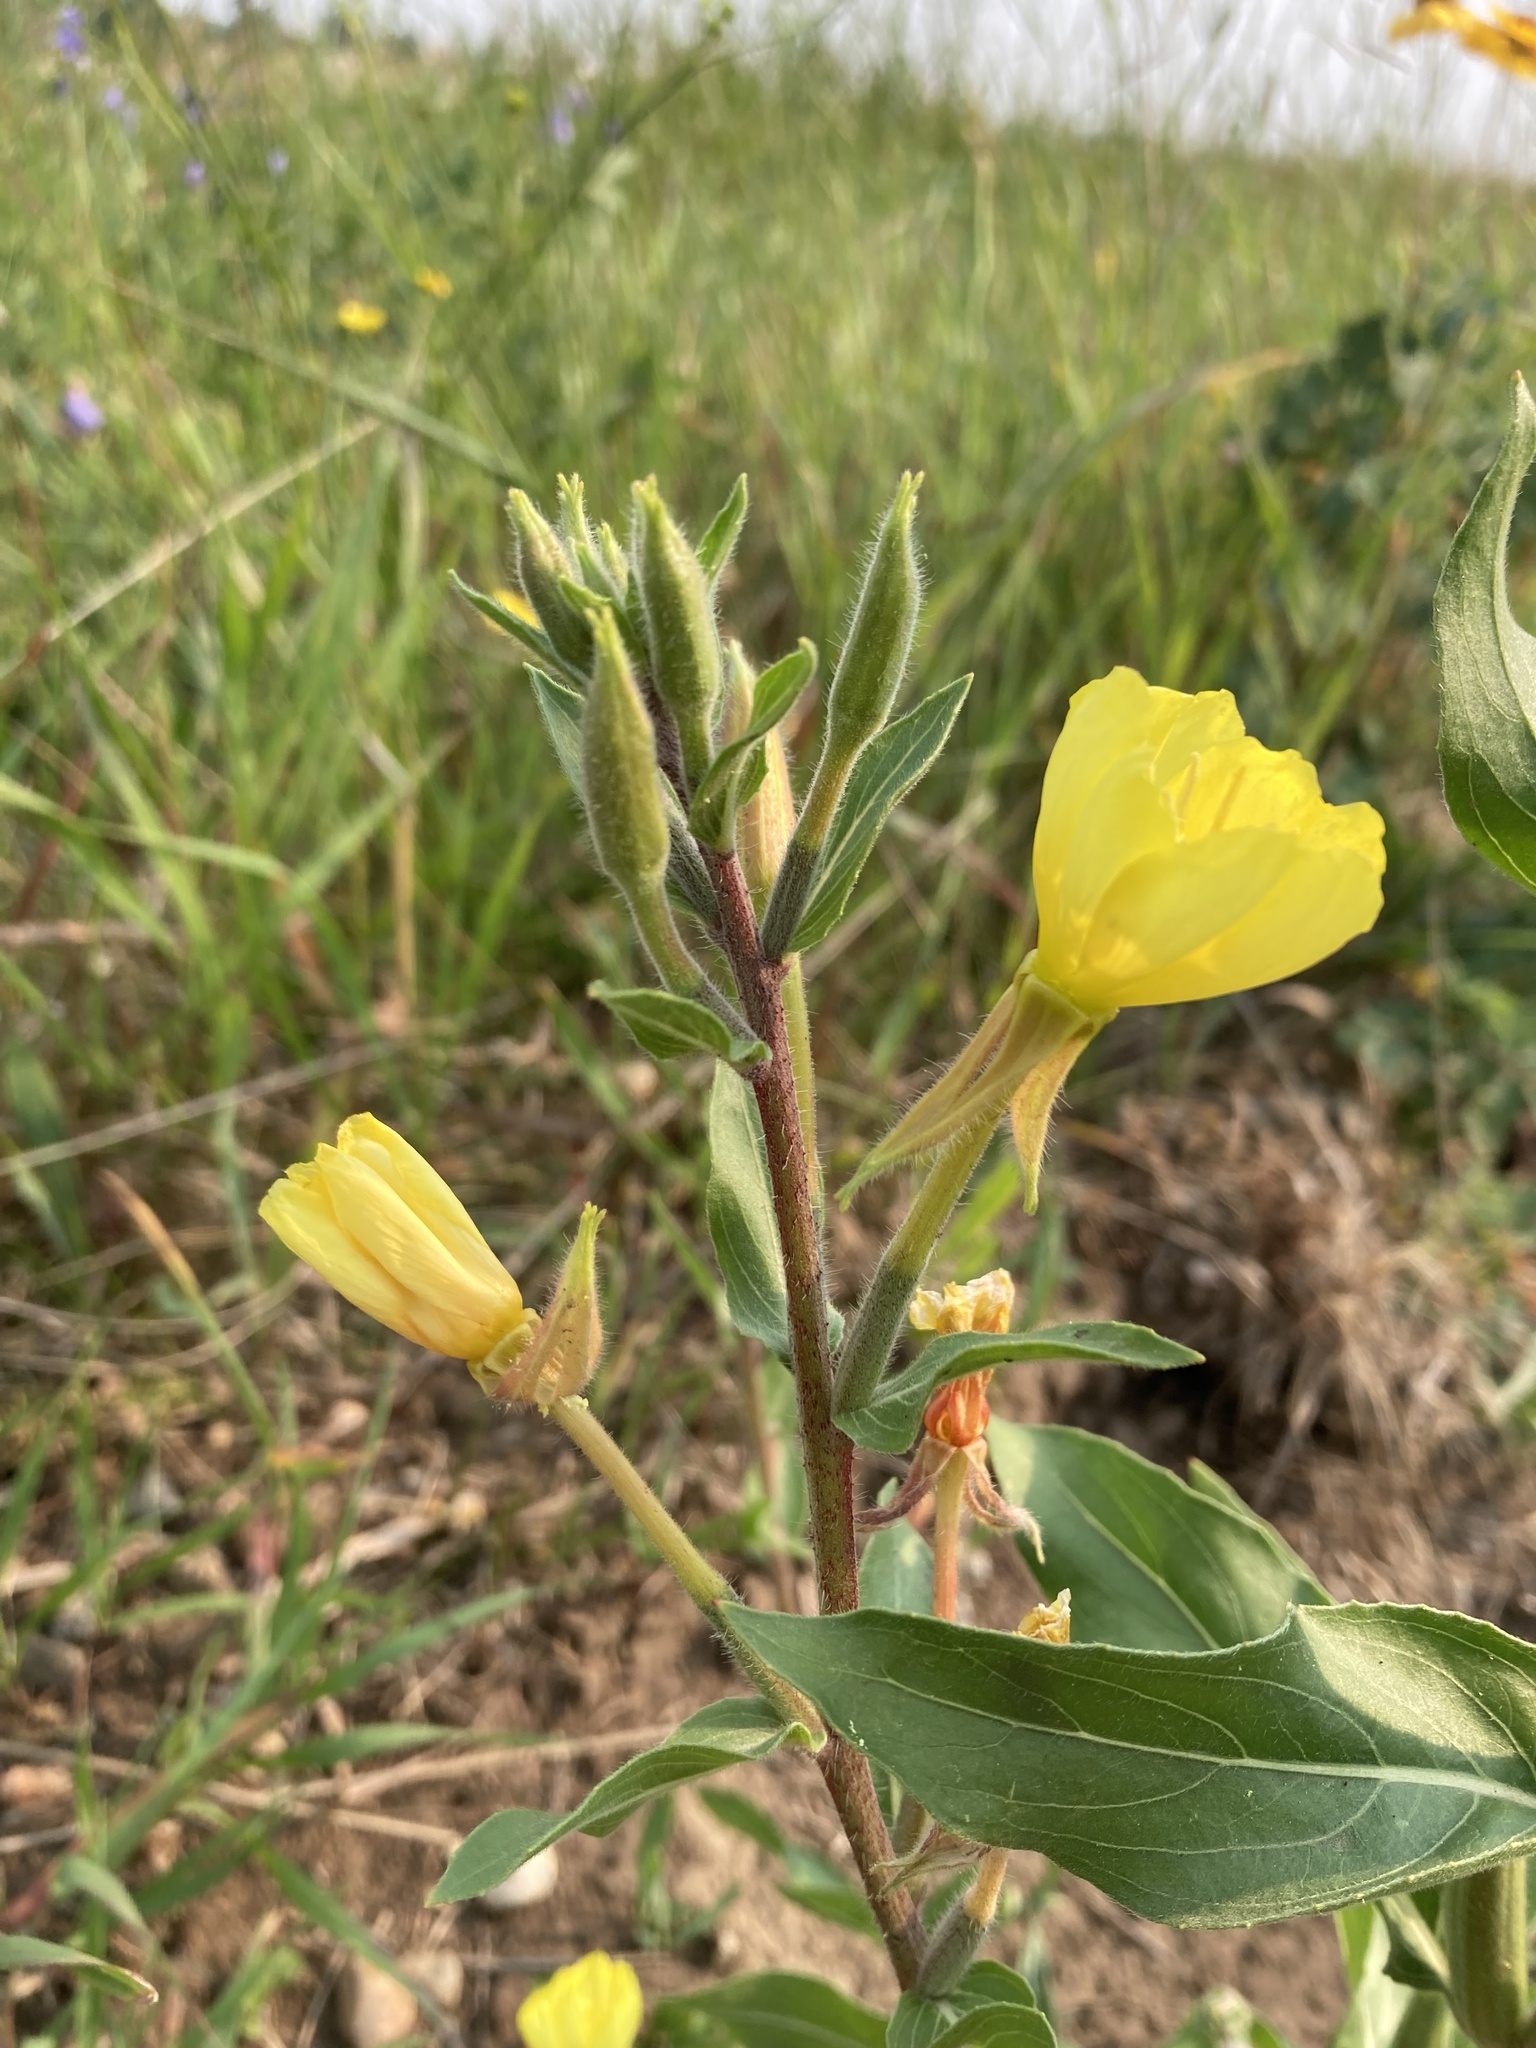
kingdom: Plantae
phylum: Tracheophyta
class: Magnoliopsida
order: Myrtales
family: Onagraceae
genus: Oenothera
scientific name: Oenothera villosa
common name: Hairy evening-primrose
